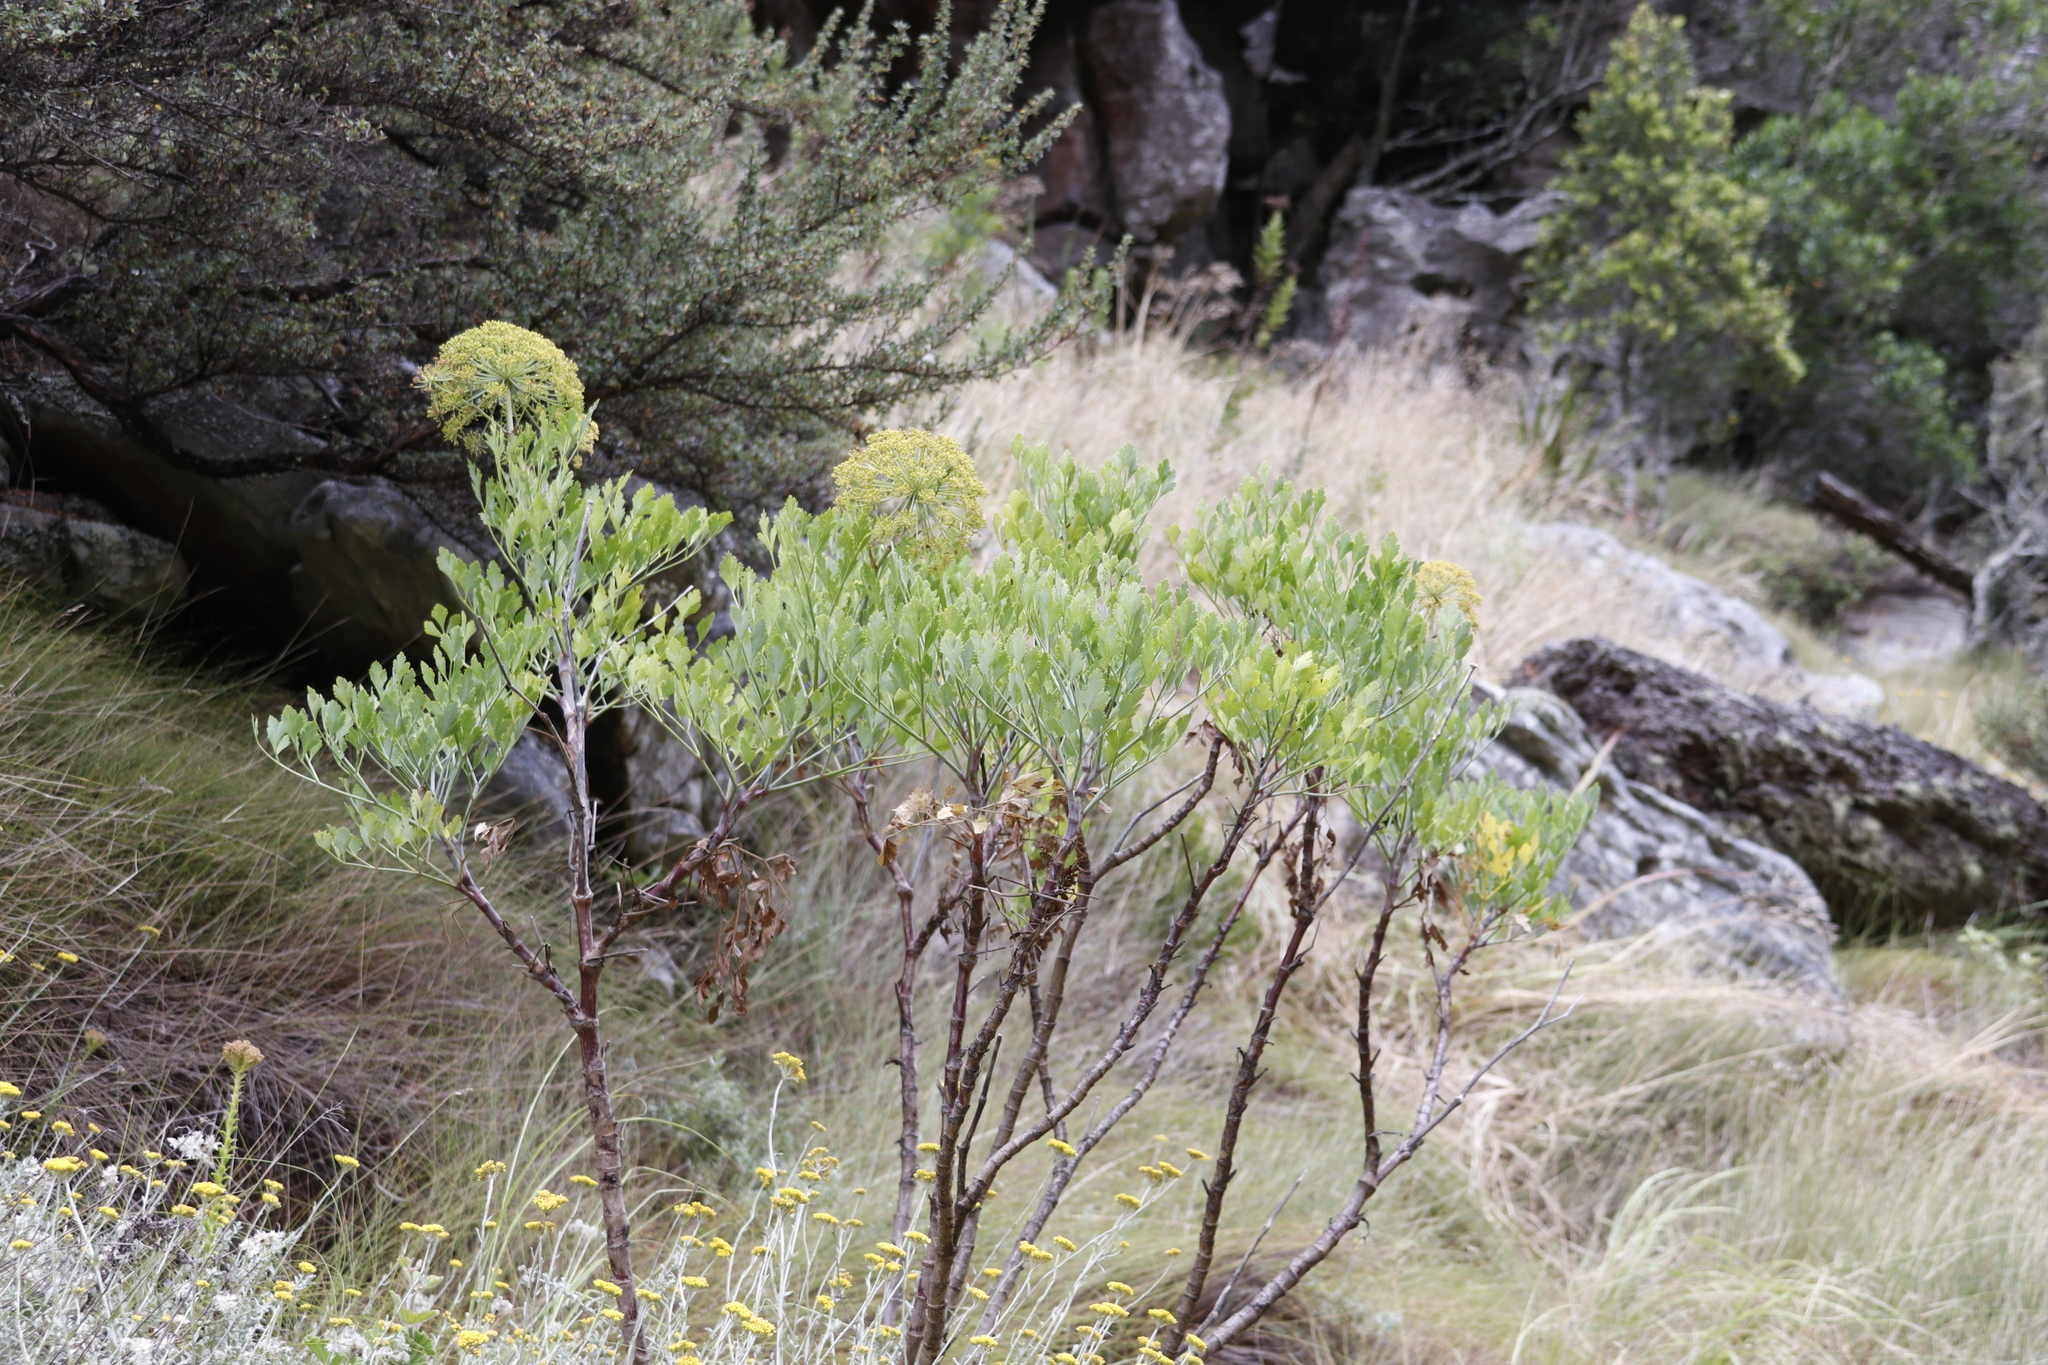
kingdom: Plantae
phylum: Tracheophyta
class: Magnoliopsida
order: Apiales
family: Apiaceae
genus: Notobubon
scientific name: Notobubon galbanum
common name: Blisterbush
